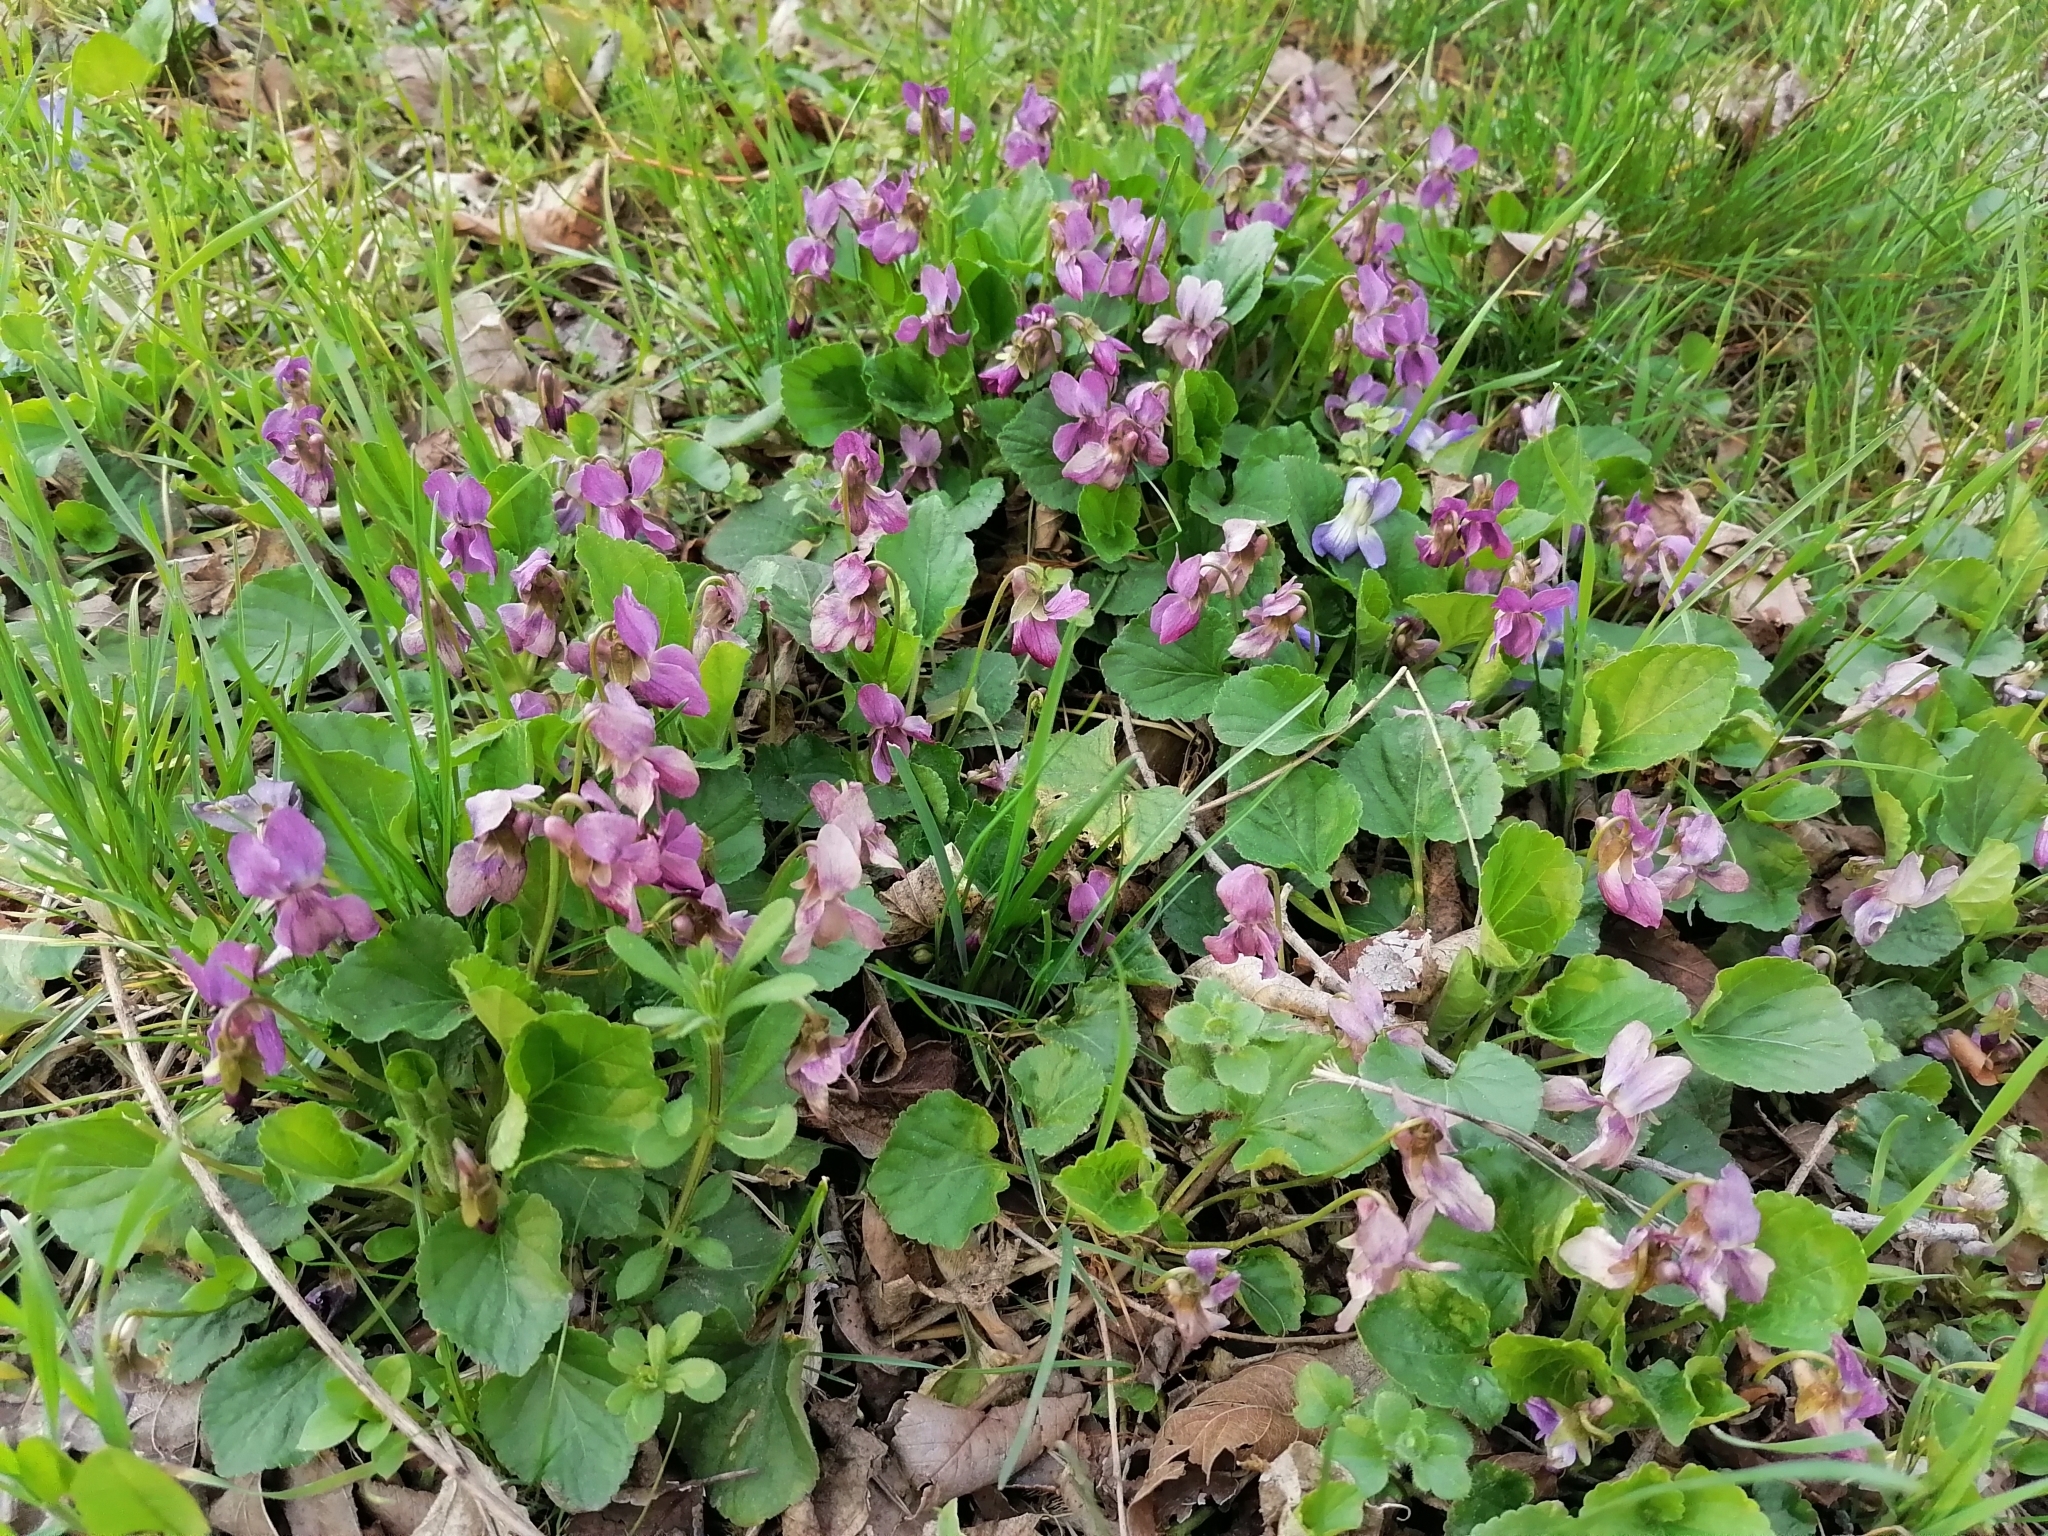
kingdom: Plantae
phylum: Tracheophyta
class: Magnoliopsida
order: Malpighiales
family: Violaceae
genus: Viola
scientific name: Viola odorata
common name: Sweet violet
